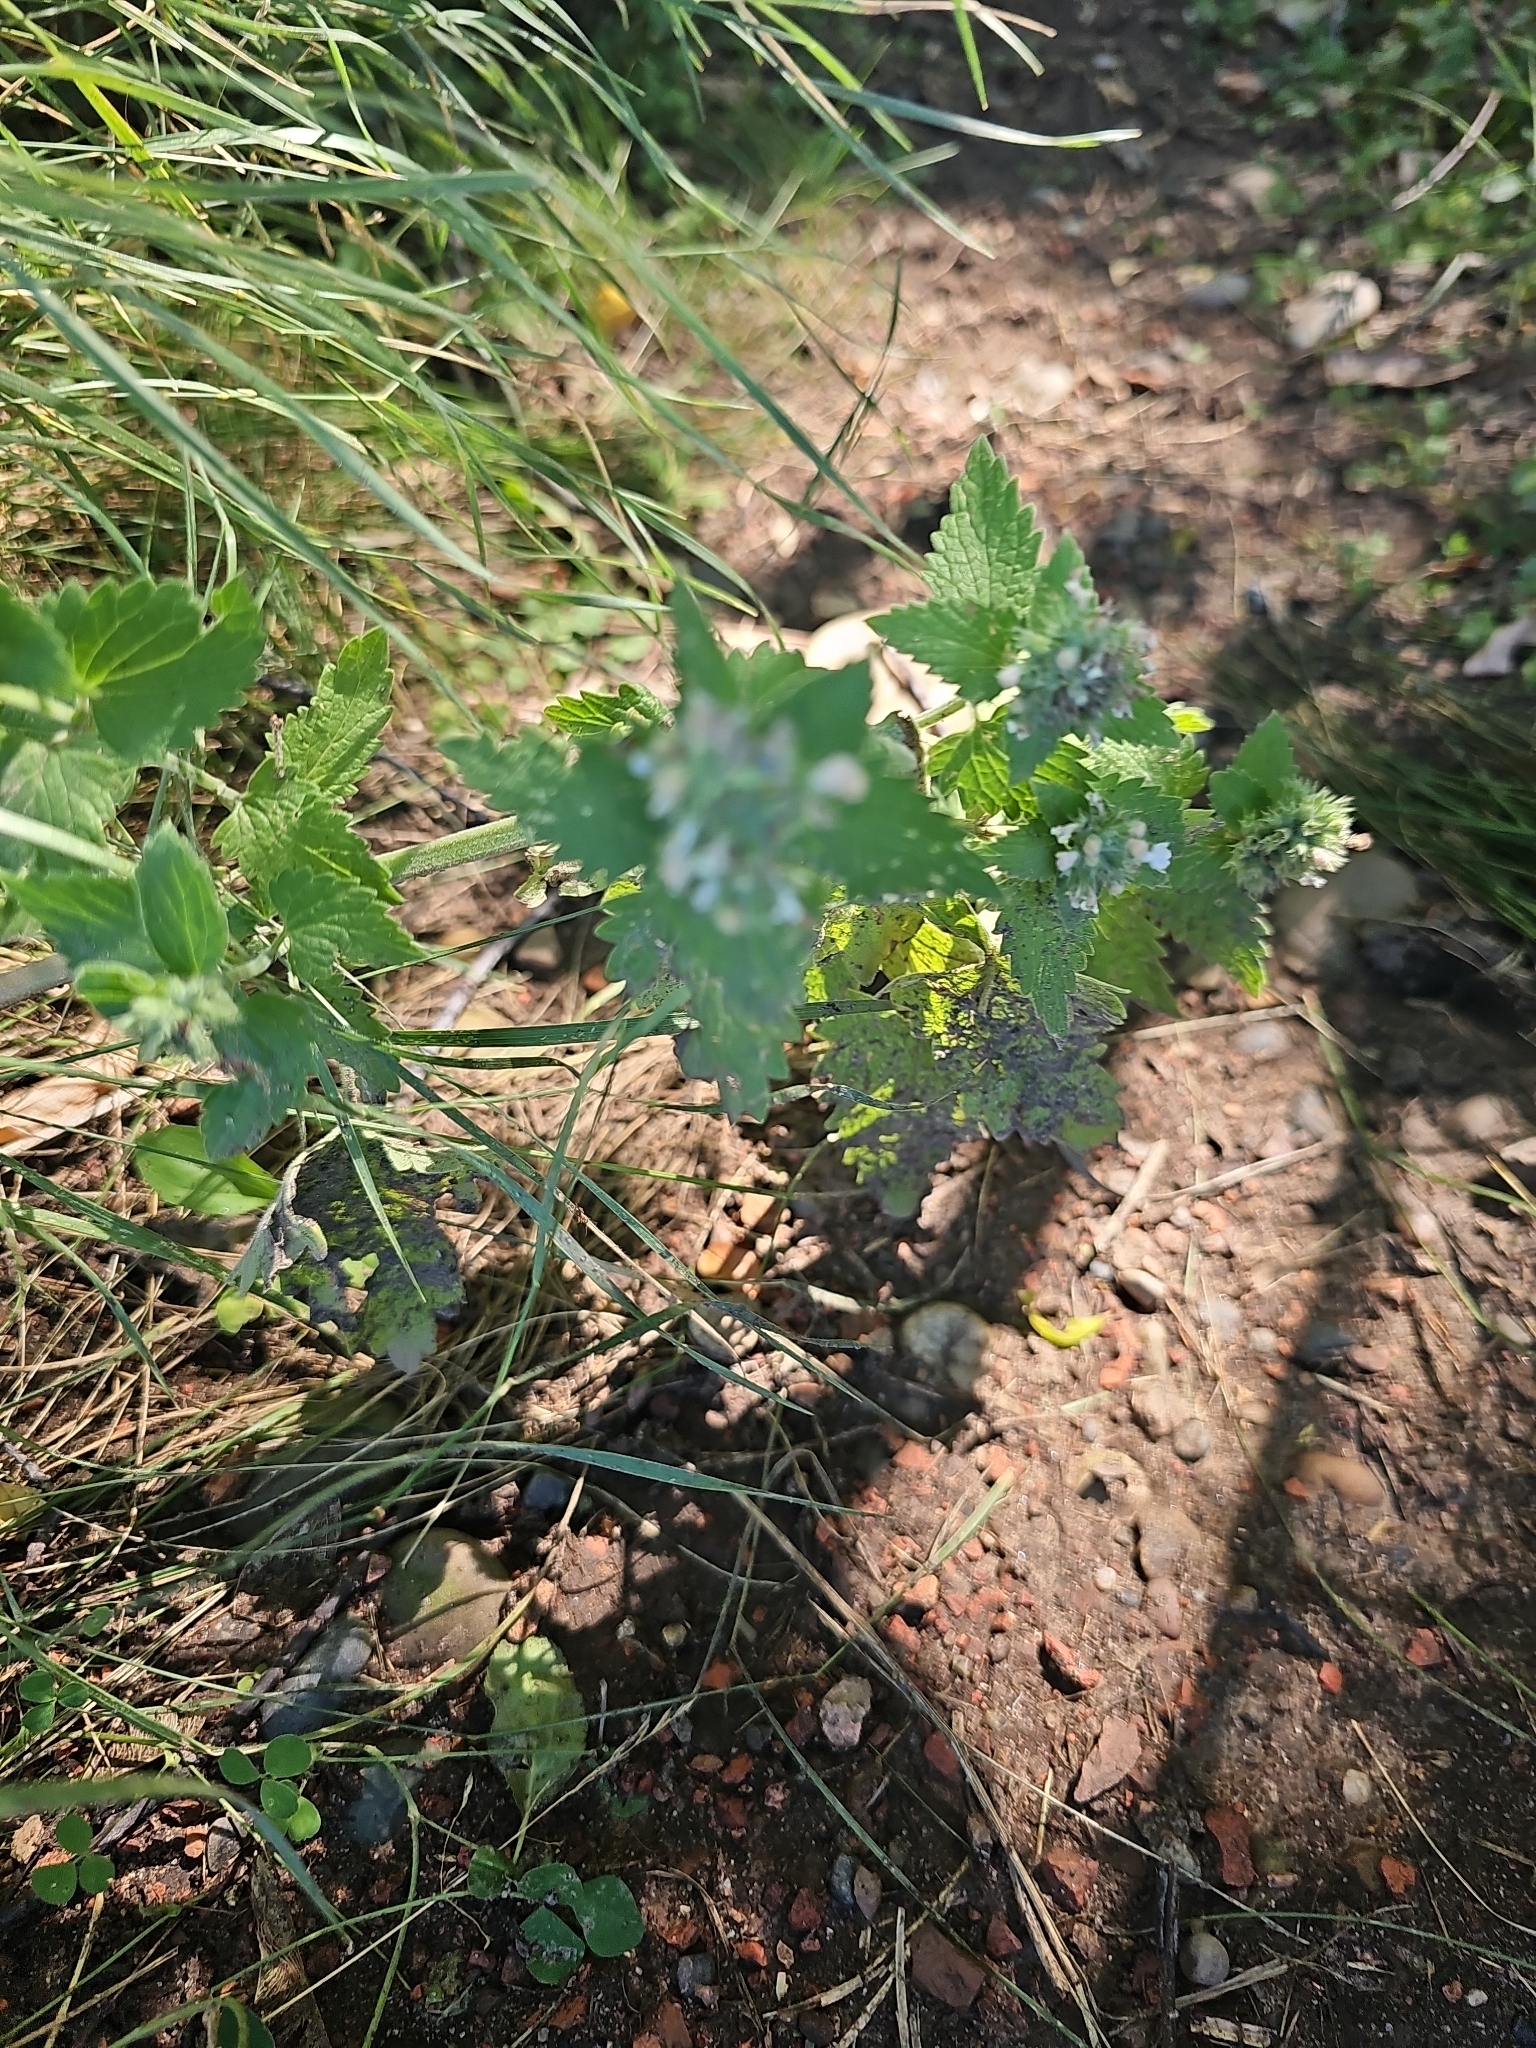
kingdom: Plantae
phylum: Tracheophyta
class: Magnoliopsida
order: Lamiales
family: Lamiaceae
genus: Nepeta
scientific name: Nepeta cataria
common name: Catnip
